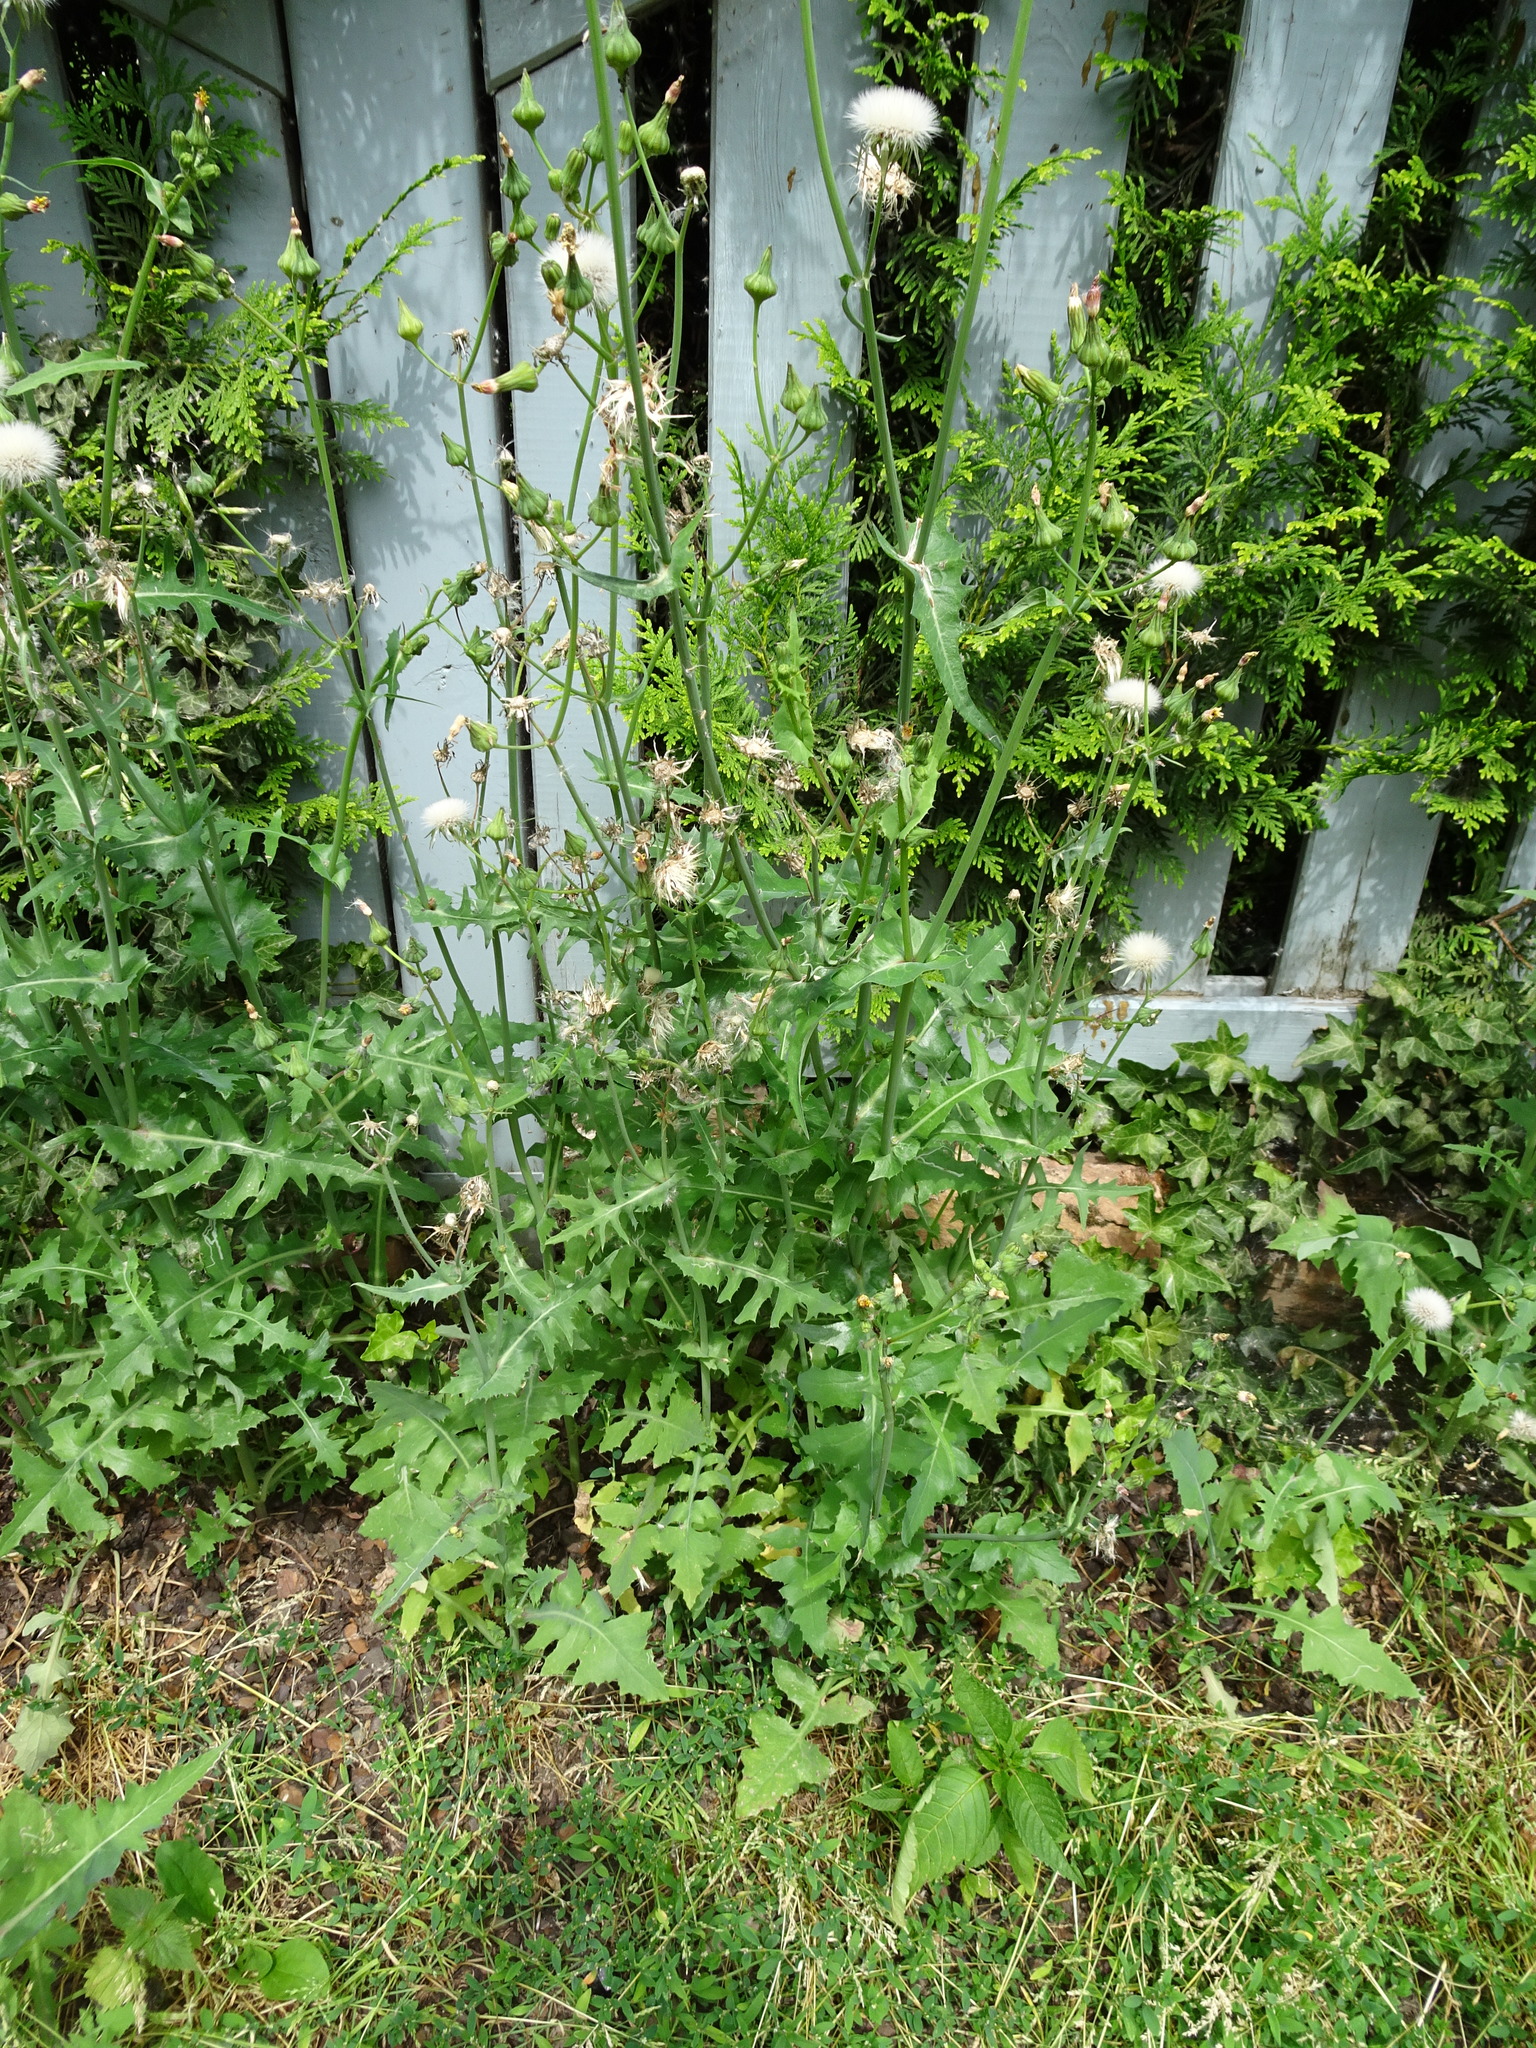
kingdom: Plantae
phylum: Tracheophyta
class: Magnoliopsida
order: Asterales
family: Asteraceae
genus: Sonchus
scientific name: Sonchus oleraceus
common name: Common sowthistle
